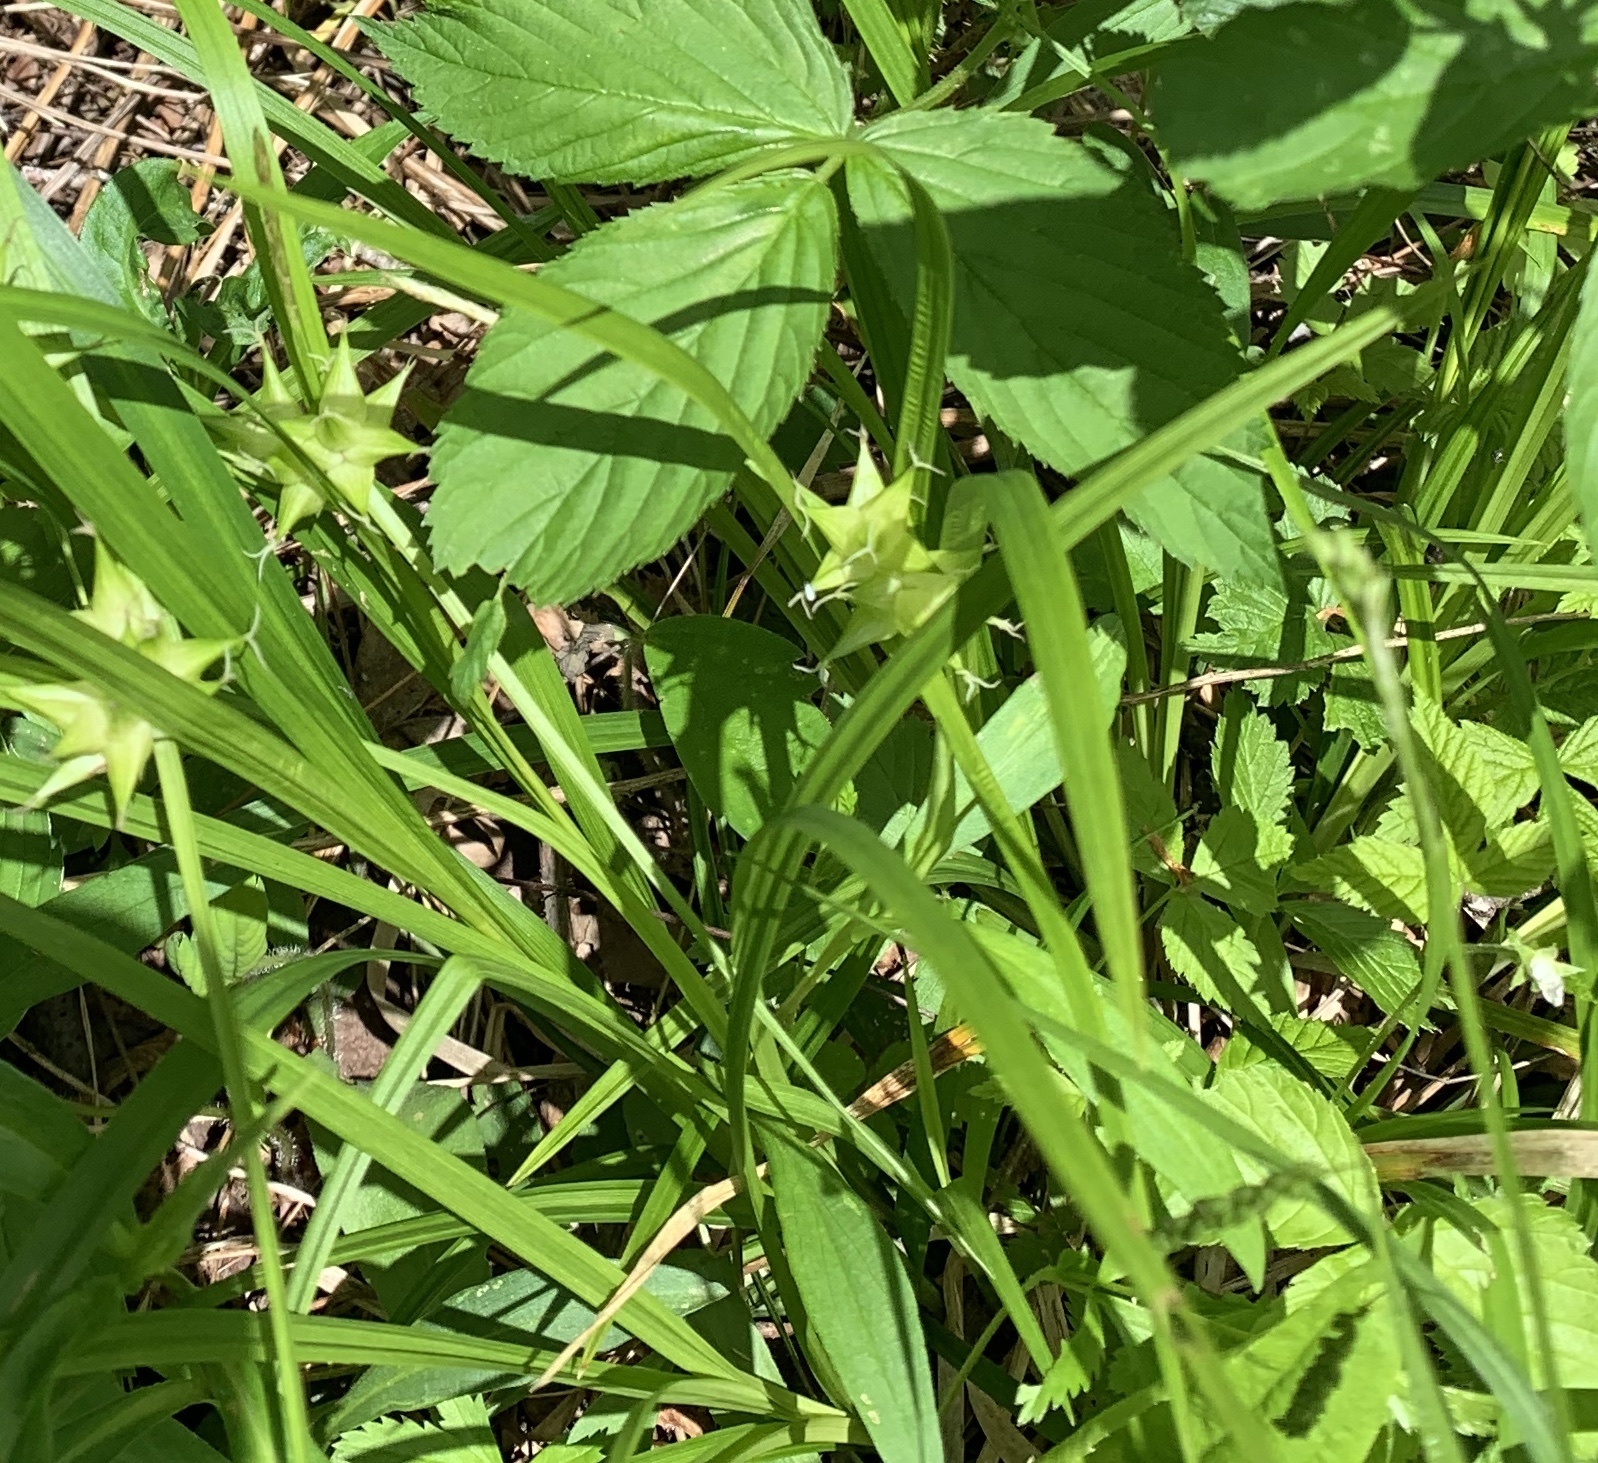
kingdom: Plantae
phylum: Tracheophyta
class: Liliopsida
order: Poales
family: Cyperaceae
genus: Carex
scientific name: Carex intumescens
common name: Greater bladder sedge
